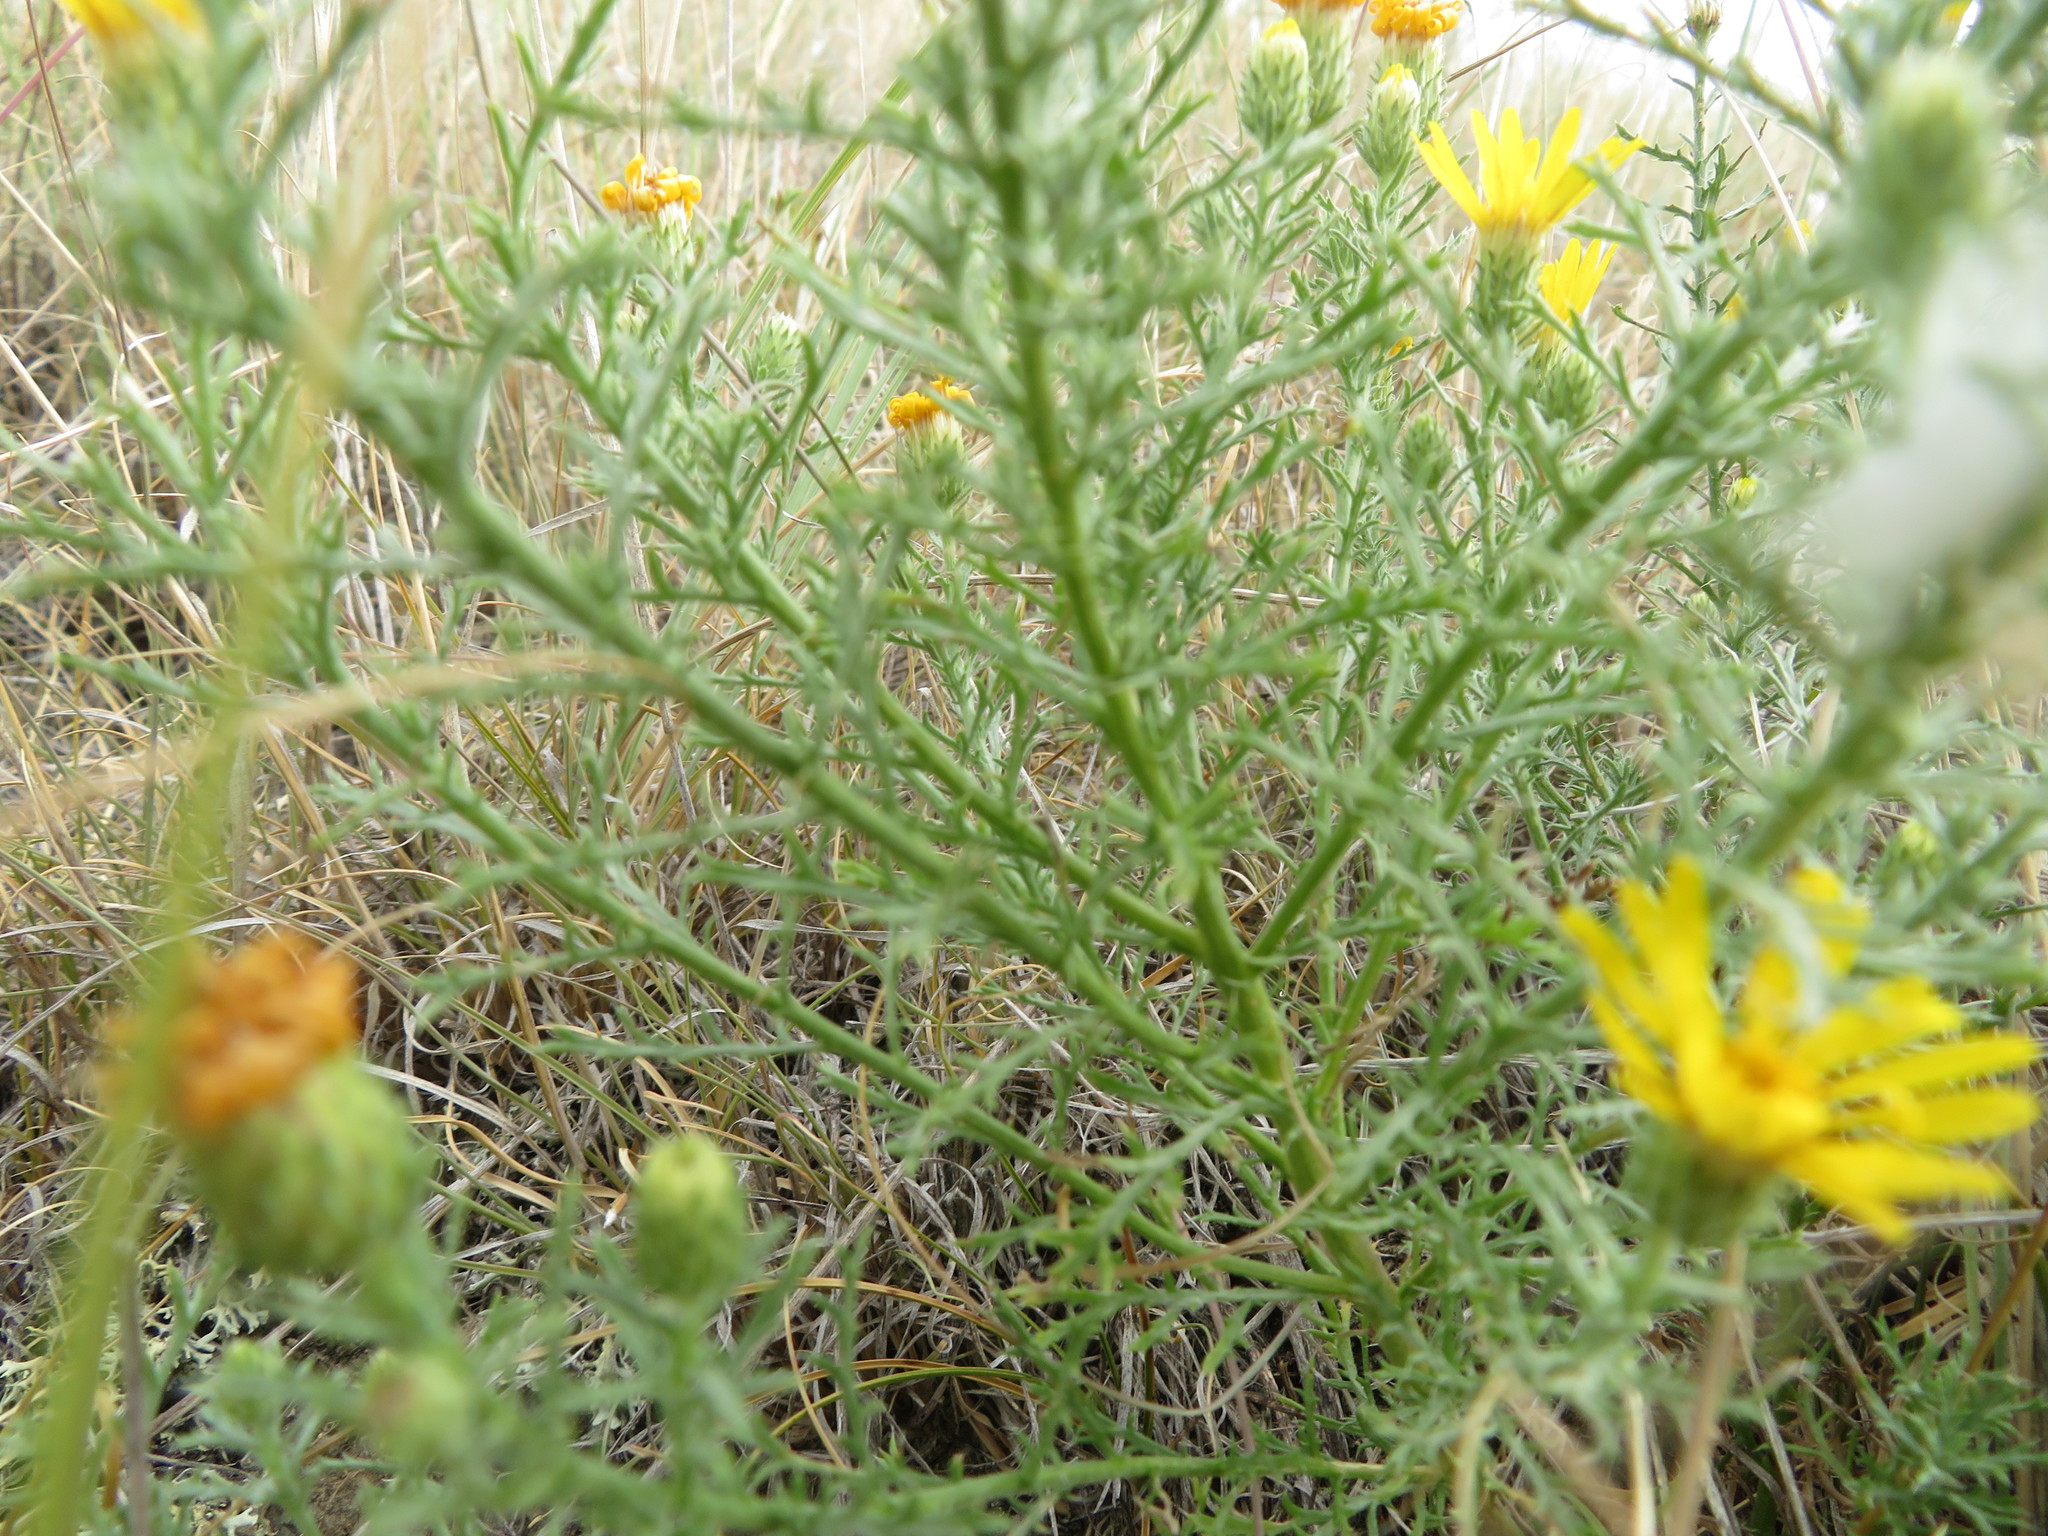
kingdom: Plantae
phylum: Tracheophyta
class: Magnoliopsida
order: Asterales
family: Asteraceae
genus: Xanthisma
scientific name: Xanthisma spinulosum
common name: Spiny goldenweed
